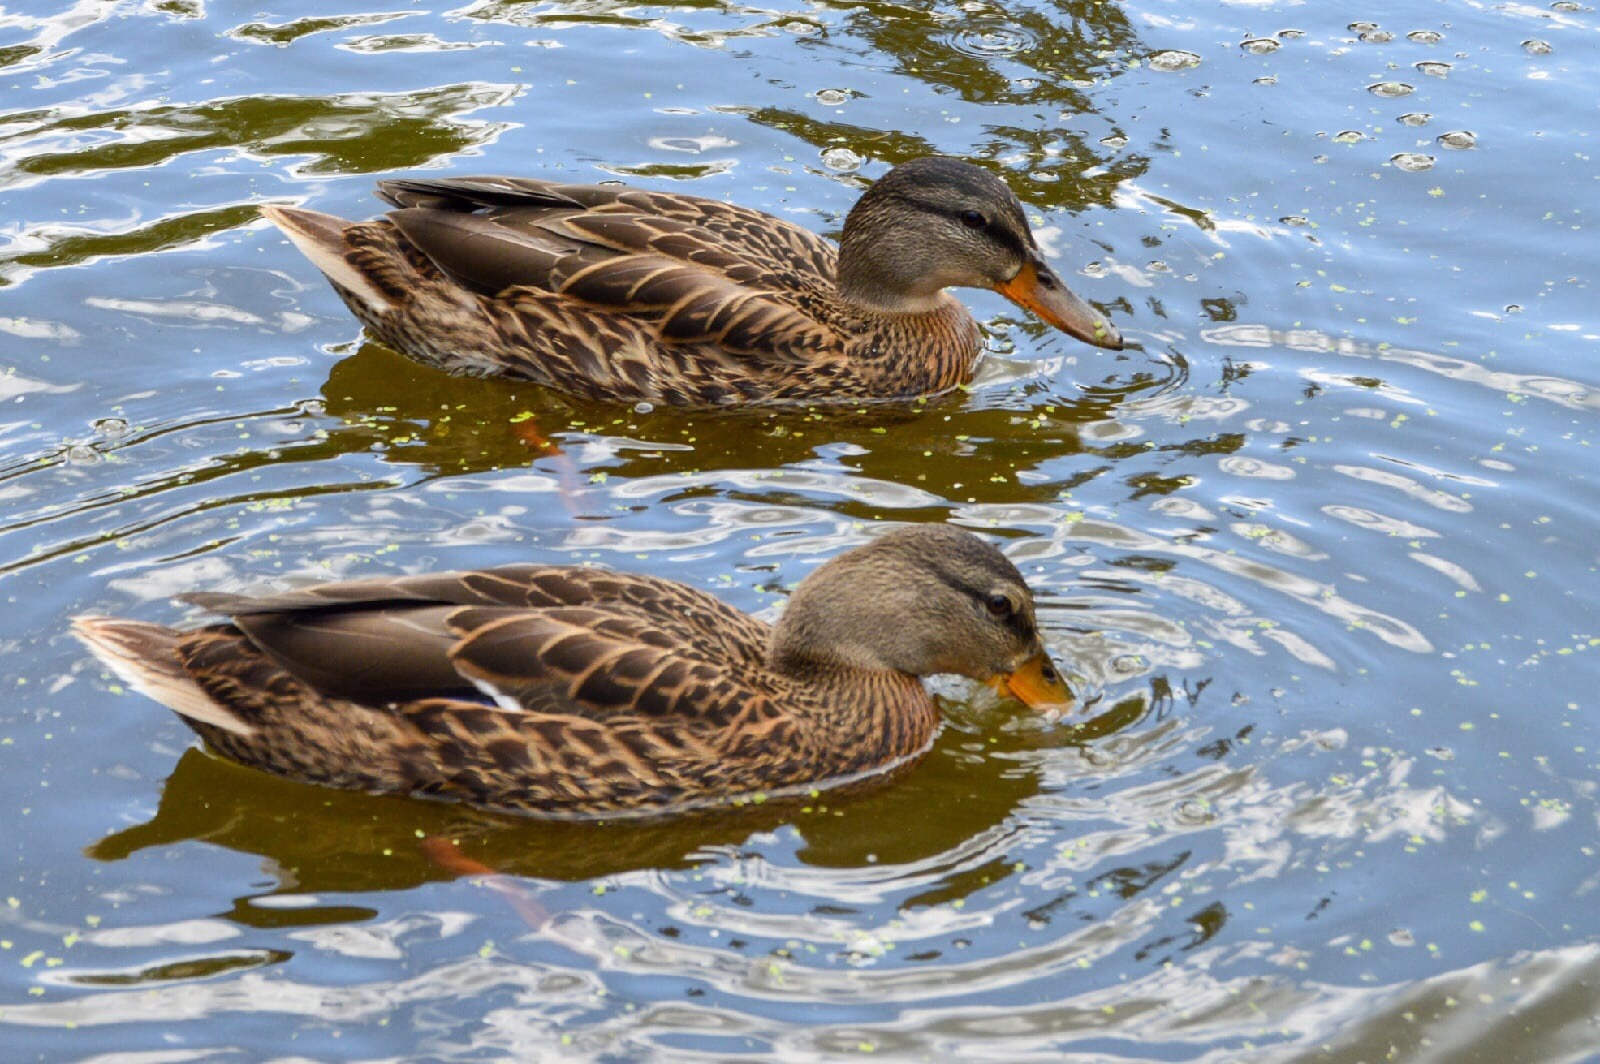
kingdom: Animalia
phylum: Chordata
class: Aves
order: Anseriformes
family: Anatidae
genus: Anas
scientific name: Anas platyrhynchos
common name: Mallard
